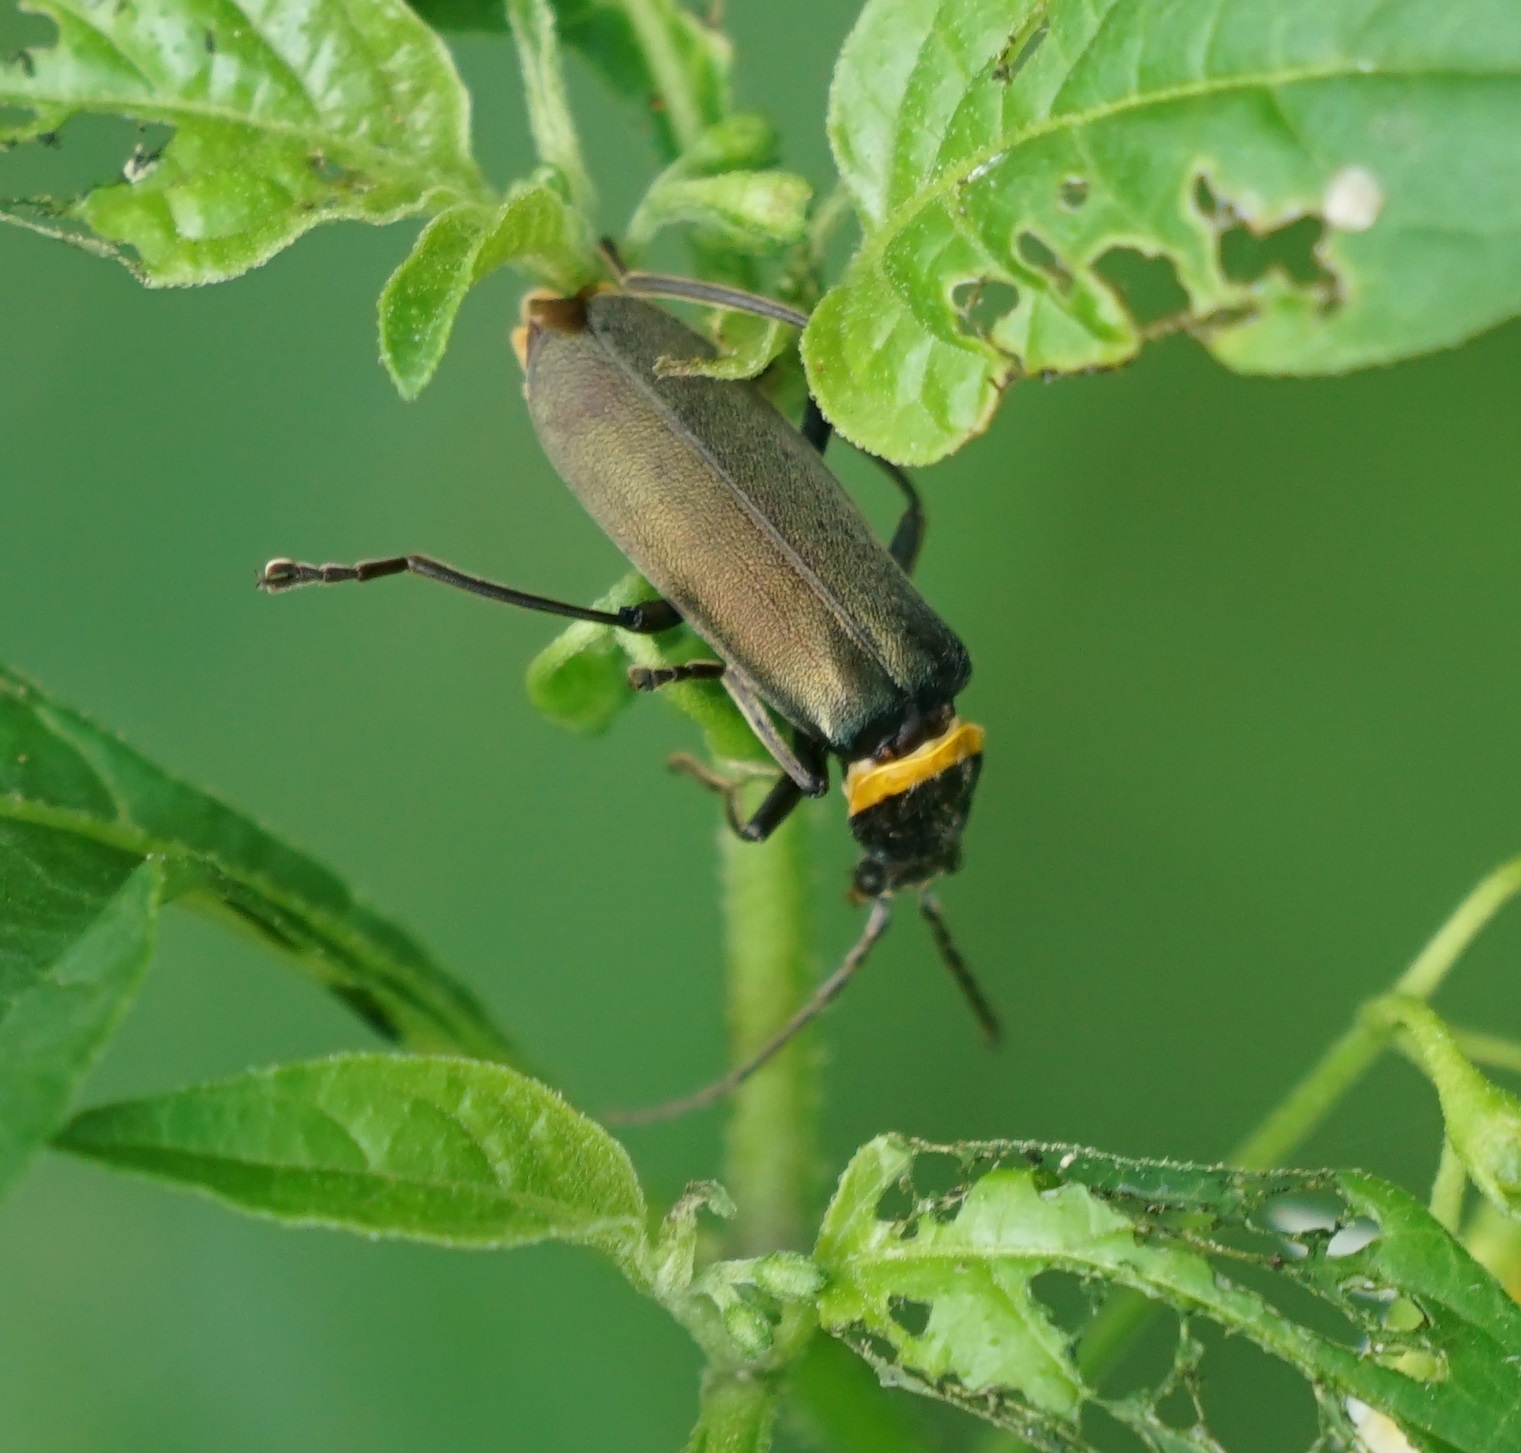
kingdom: Animalia
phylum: Arthropoda
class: Insecta
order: Coleoptera
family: Cantharidae
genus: Chauliognathus
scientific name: Chauliognathus
